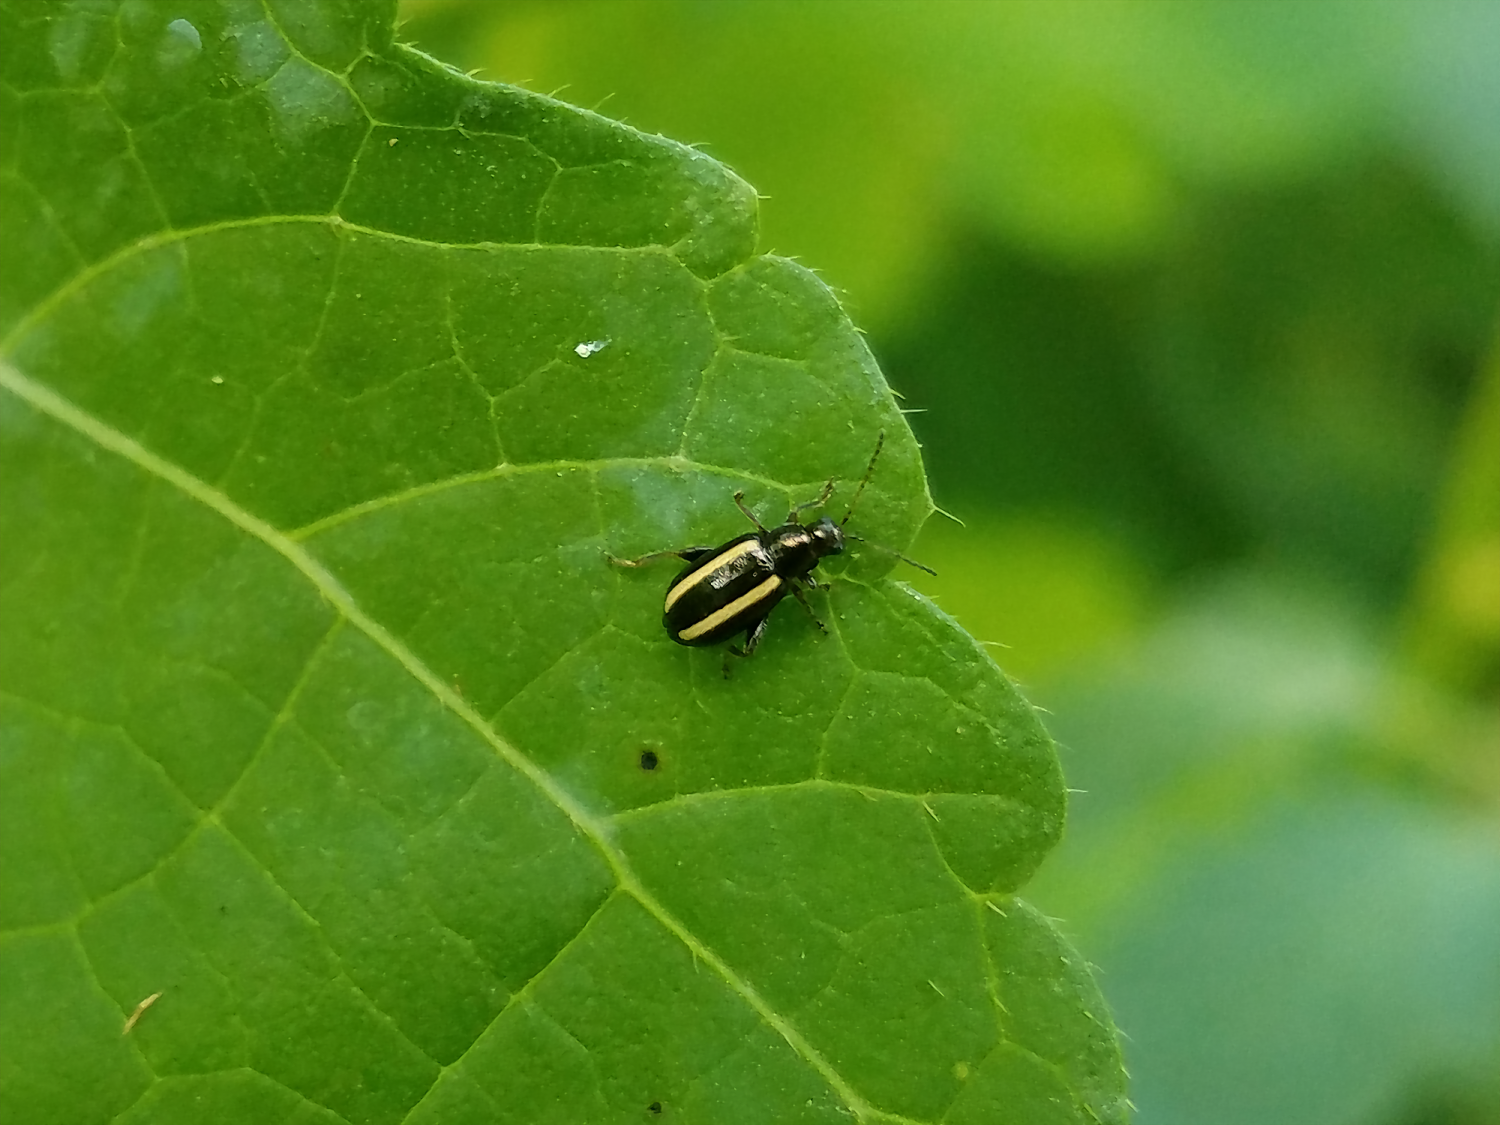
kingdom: Animalia
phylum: Arthropoda
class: Insecta
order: Coleoptera
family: Chrysomelidae
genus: Systena
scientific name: Systena elongata
